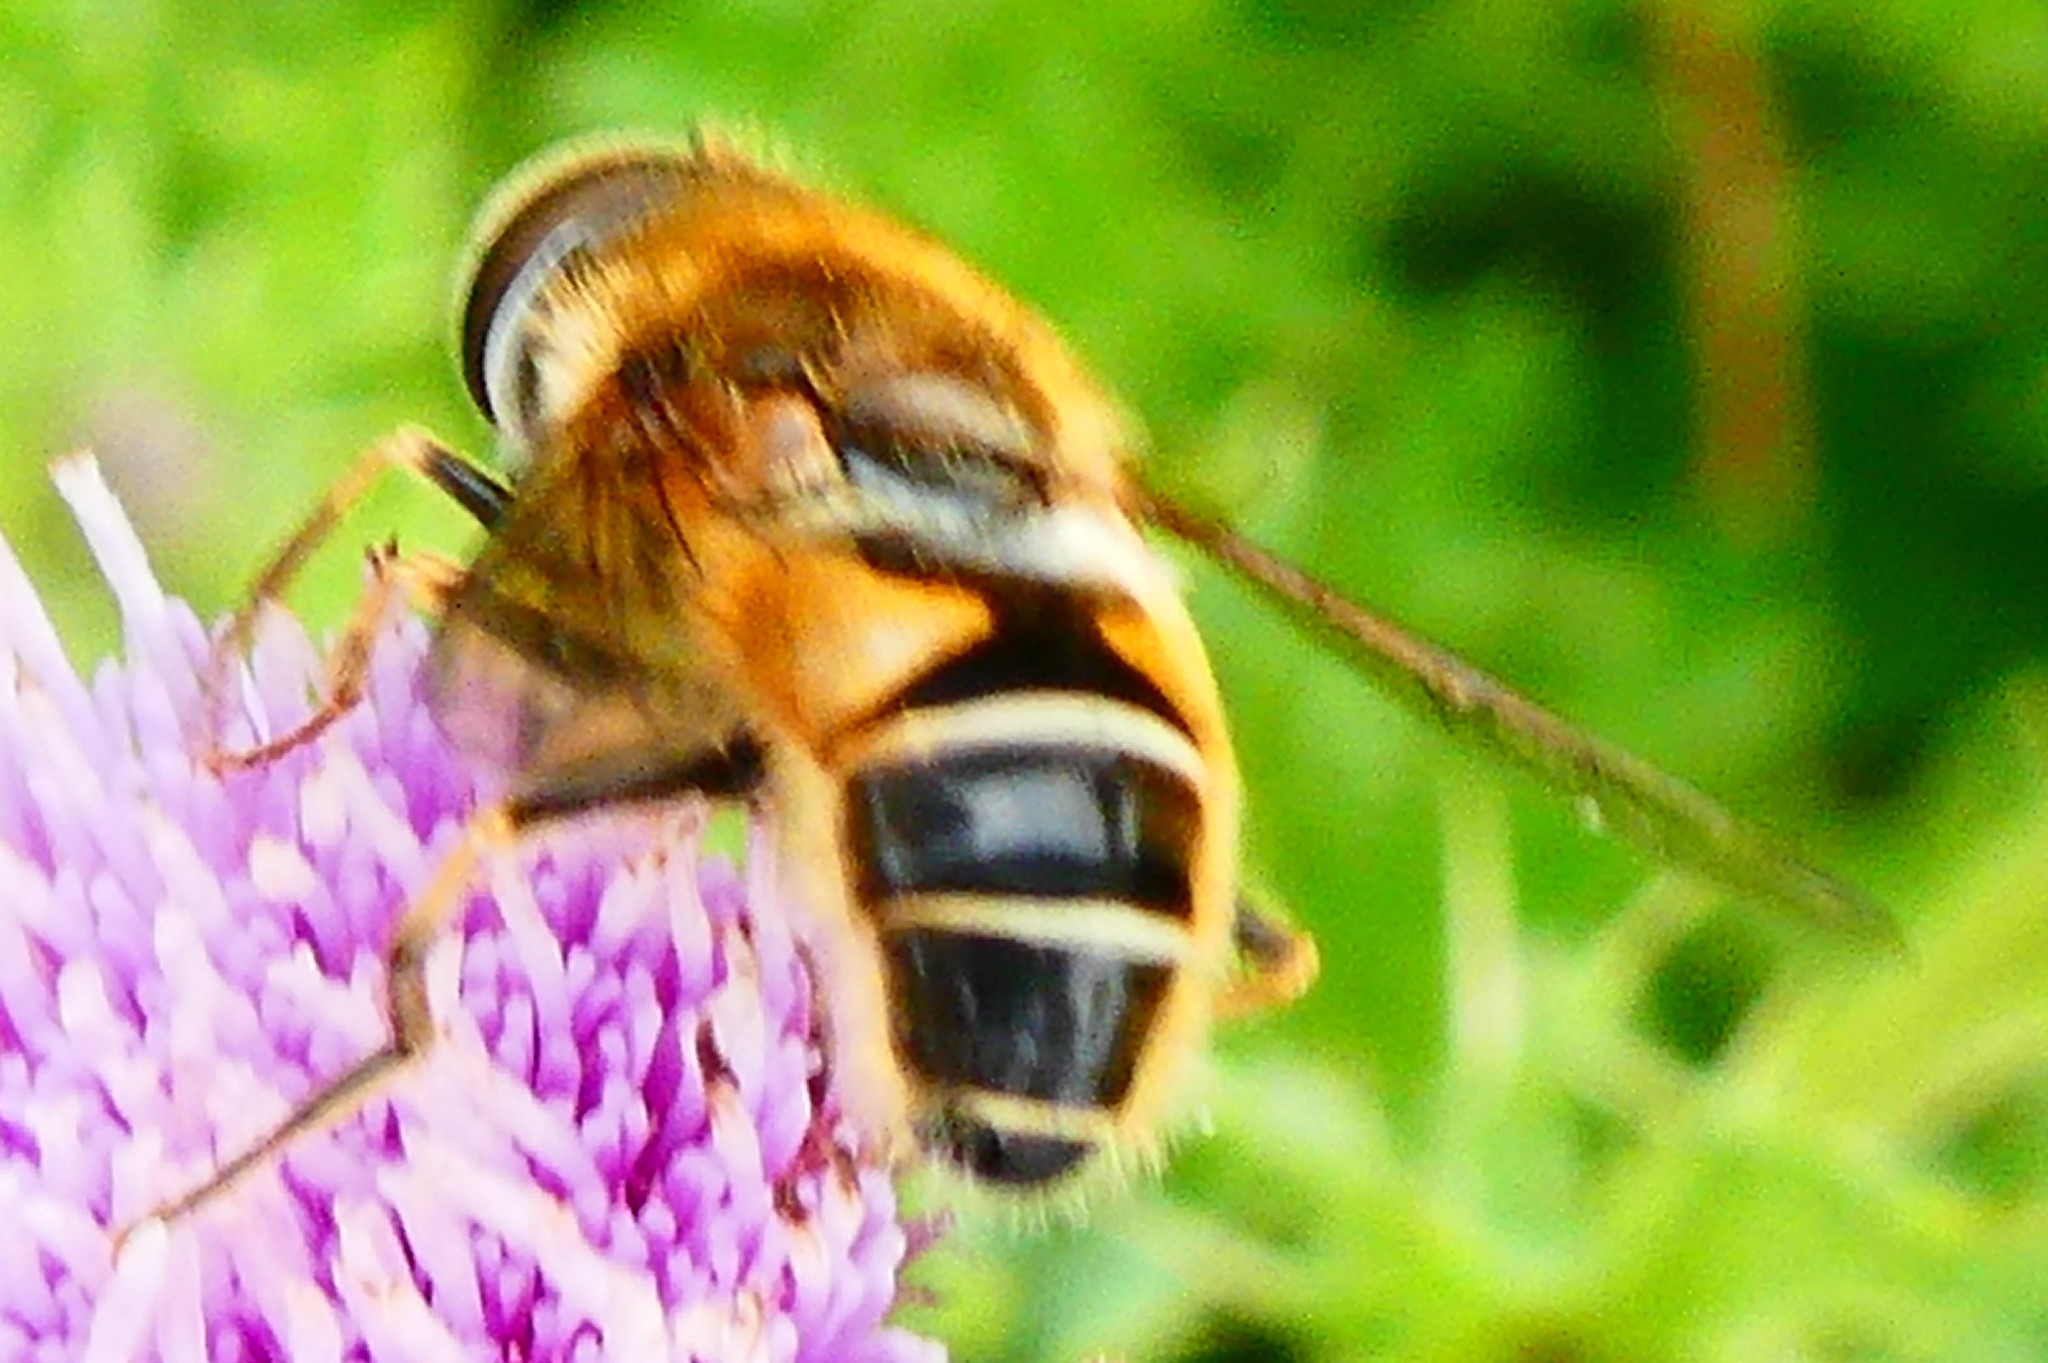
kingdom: Animalia
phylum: Arthropoda
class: Insecta
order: Diptera
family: Syrphidae
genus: Eristalis
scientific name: Eristalis nemorum
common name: Orange-spined drone fly
